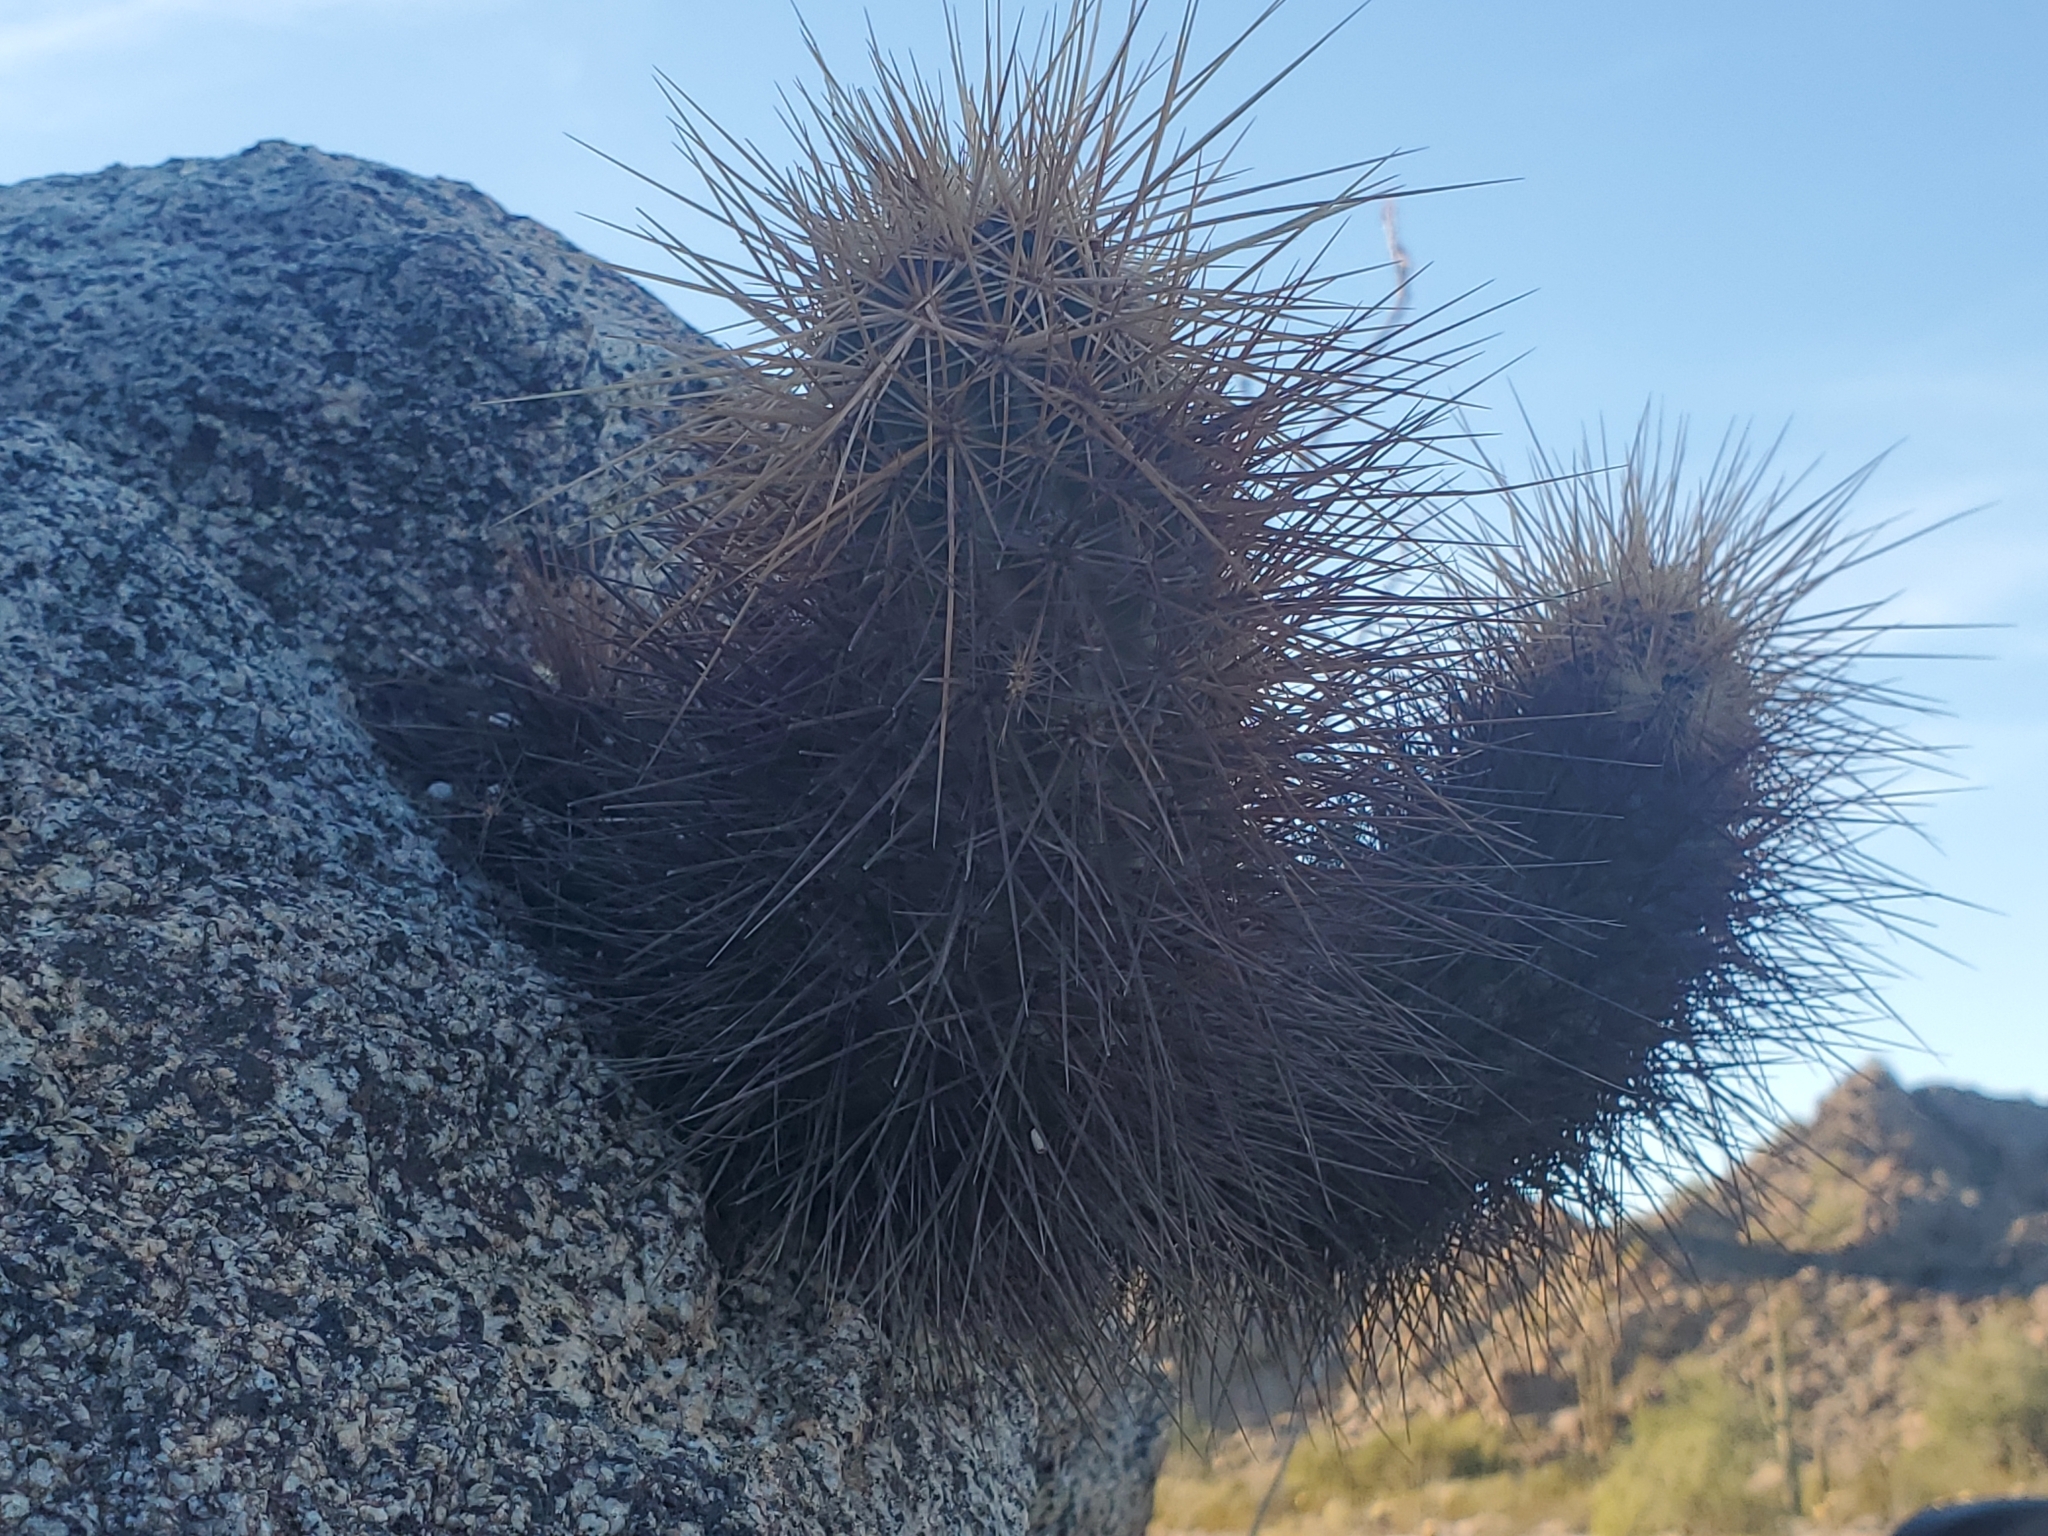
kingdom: Plantae
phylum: Tracheophyta
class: Magnoliopsida
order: Caryophyllales
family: Cactaceae
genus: Echinocereus
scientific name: Echinocereus engelmannii
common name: Engelmann's hedgehog cactus
